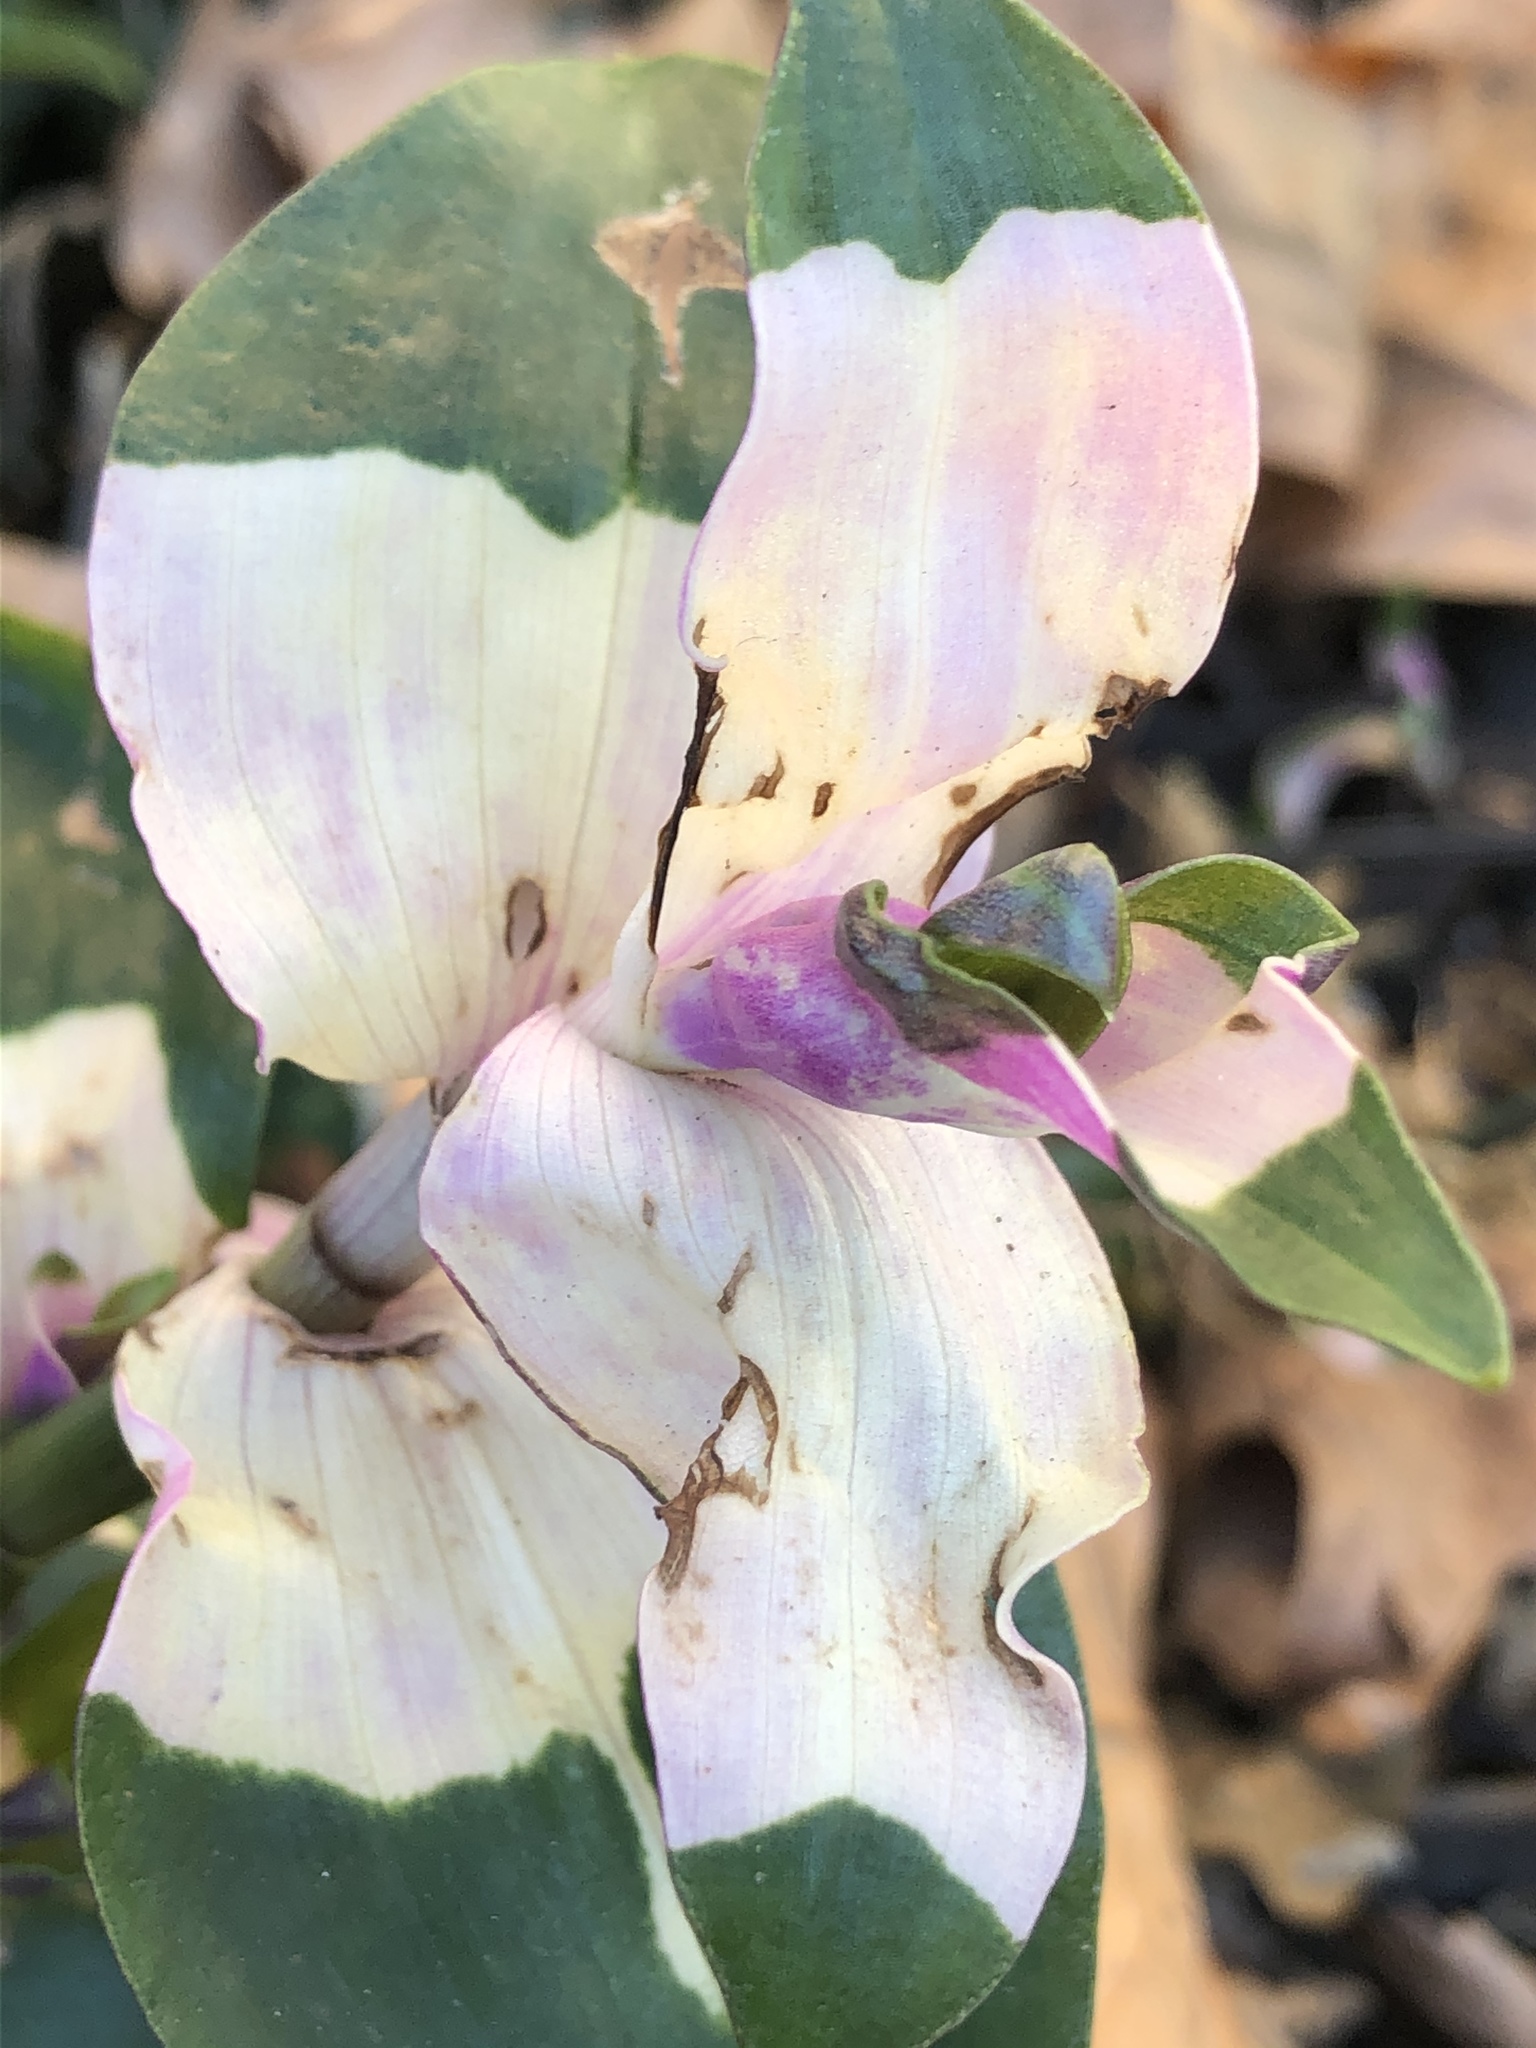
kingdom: Plantae
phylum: Tracheophyta
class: Liliopsida
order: Commelinales
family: Commelinaceae
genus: Tradescantia
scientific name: Tradescantia fluminensis
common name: Wandering-jew
